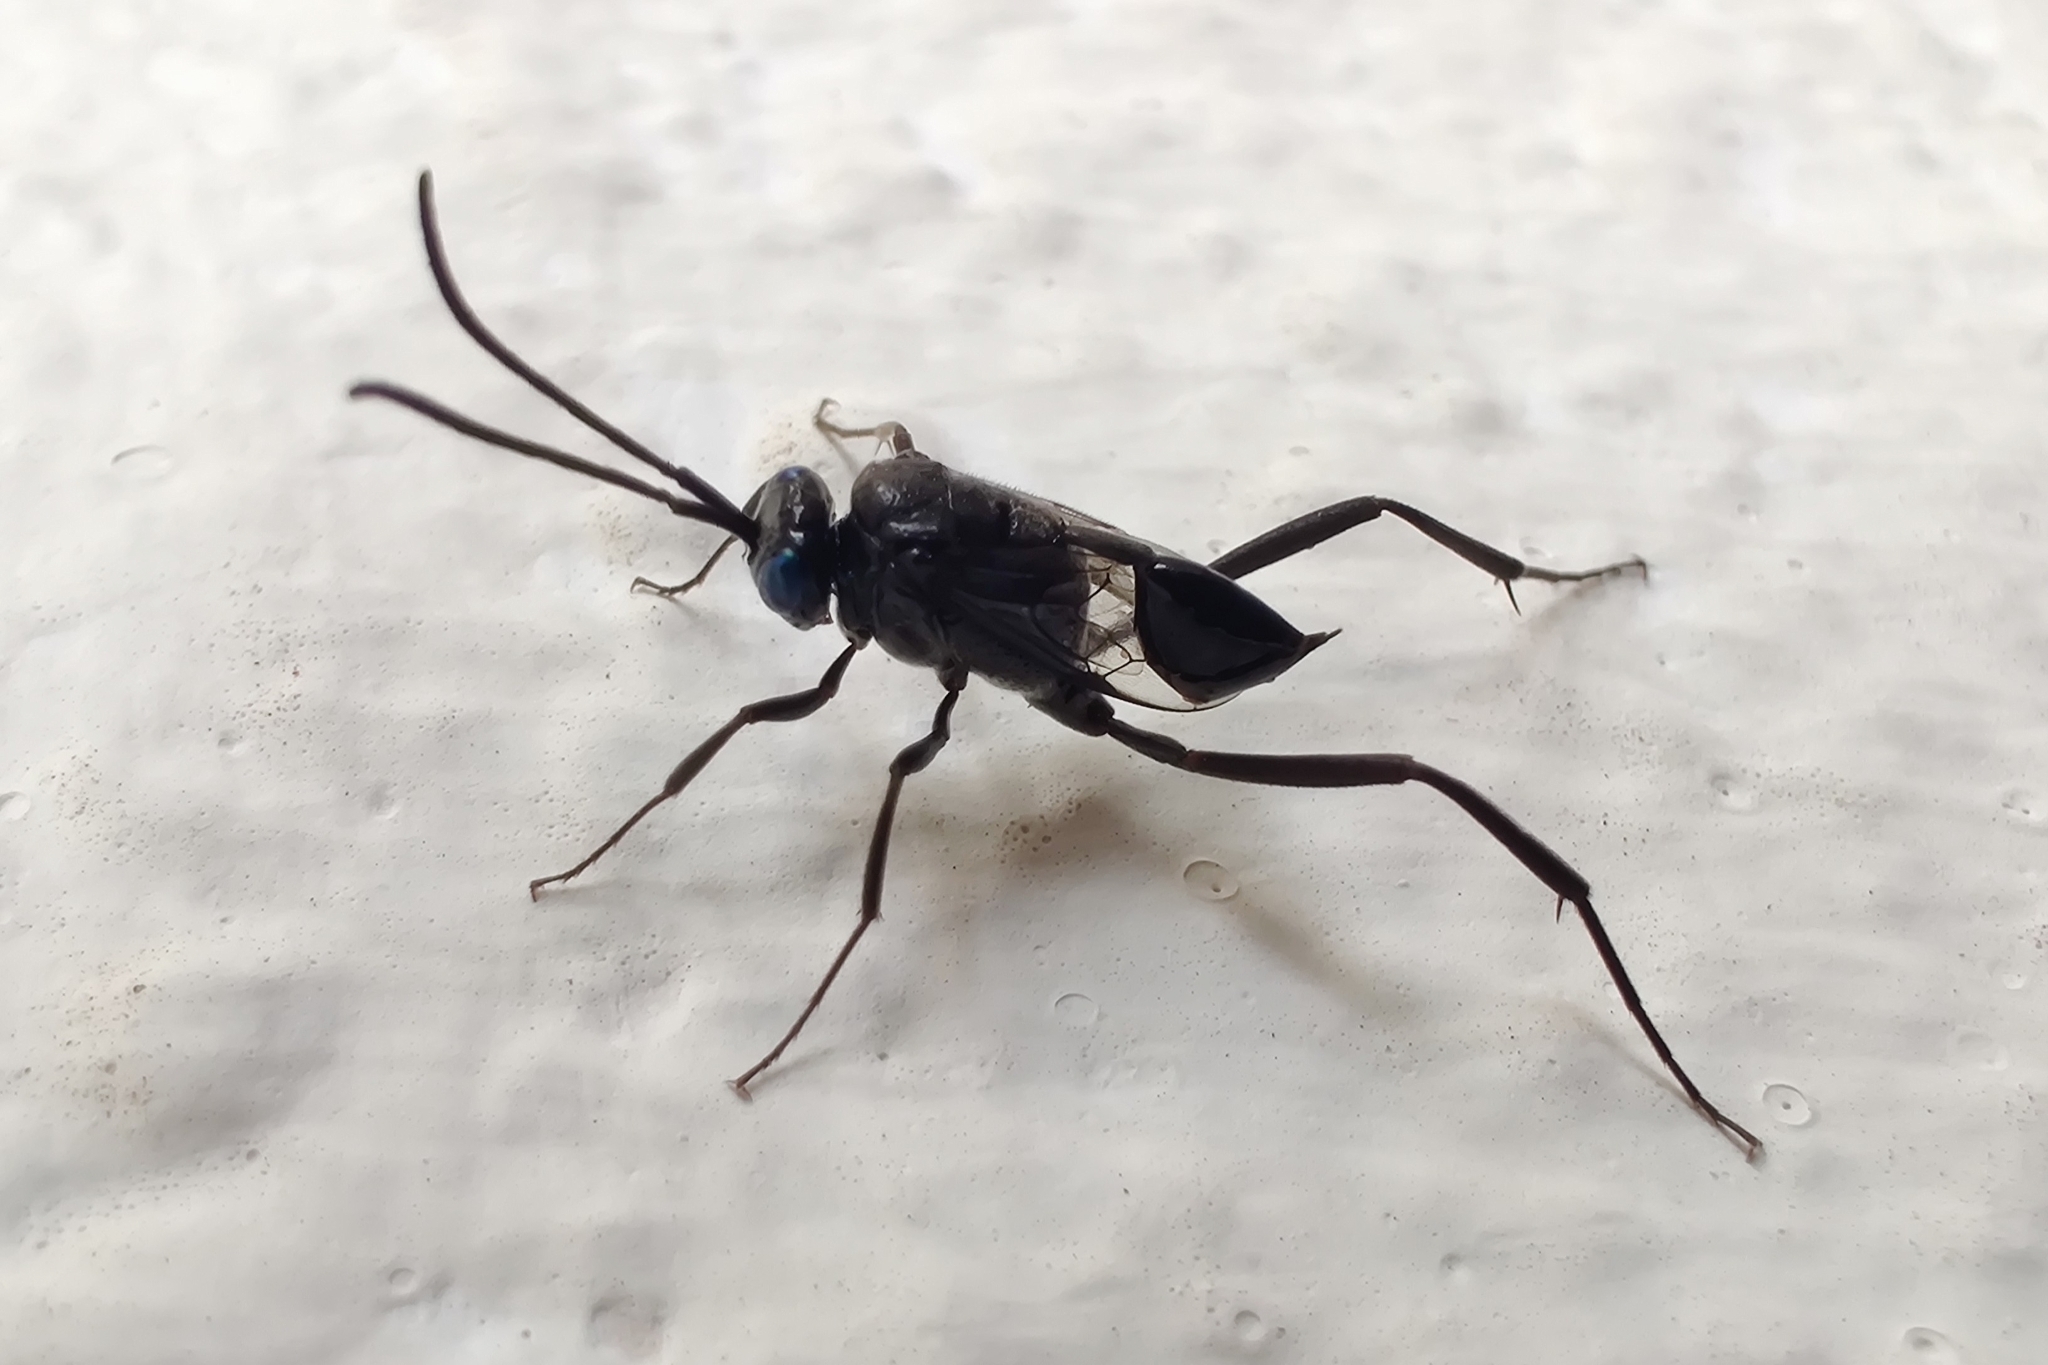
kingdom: Animalia
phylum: Arthropoda
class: Insecta
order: Hymenoptera
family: Evaniidae
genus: Evania
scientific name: Evania appendigaster
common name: Ensign wasp
